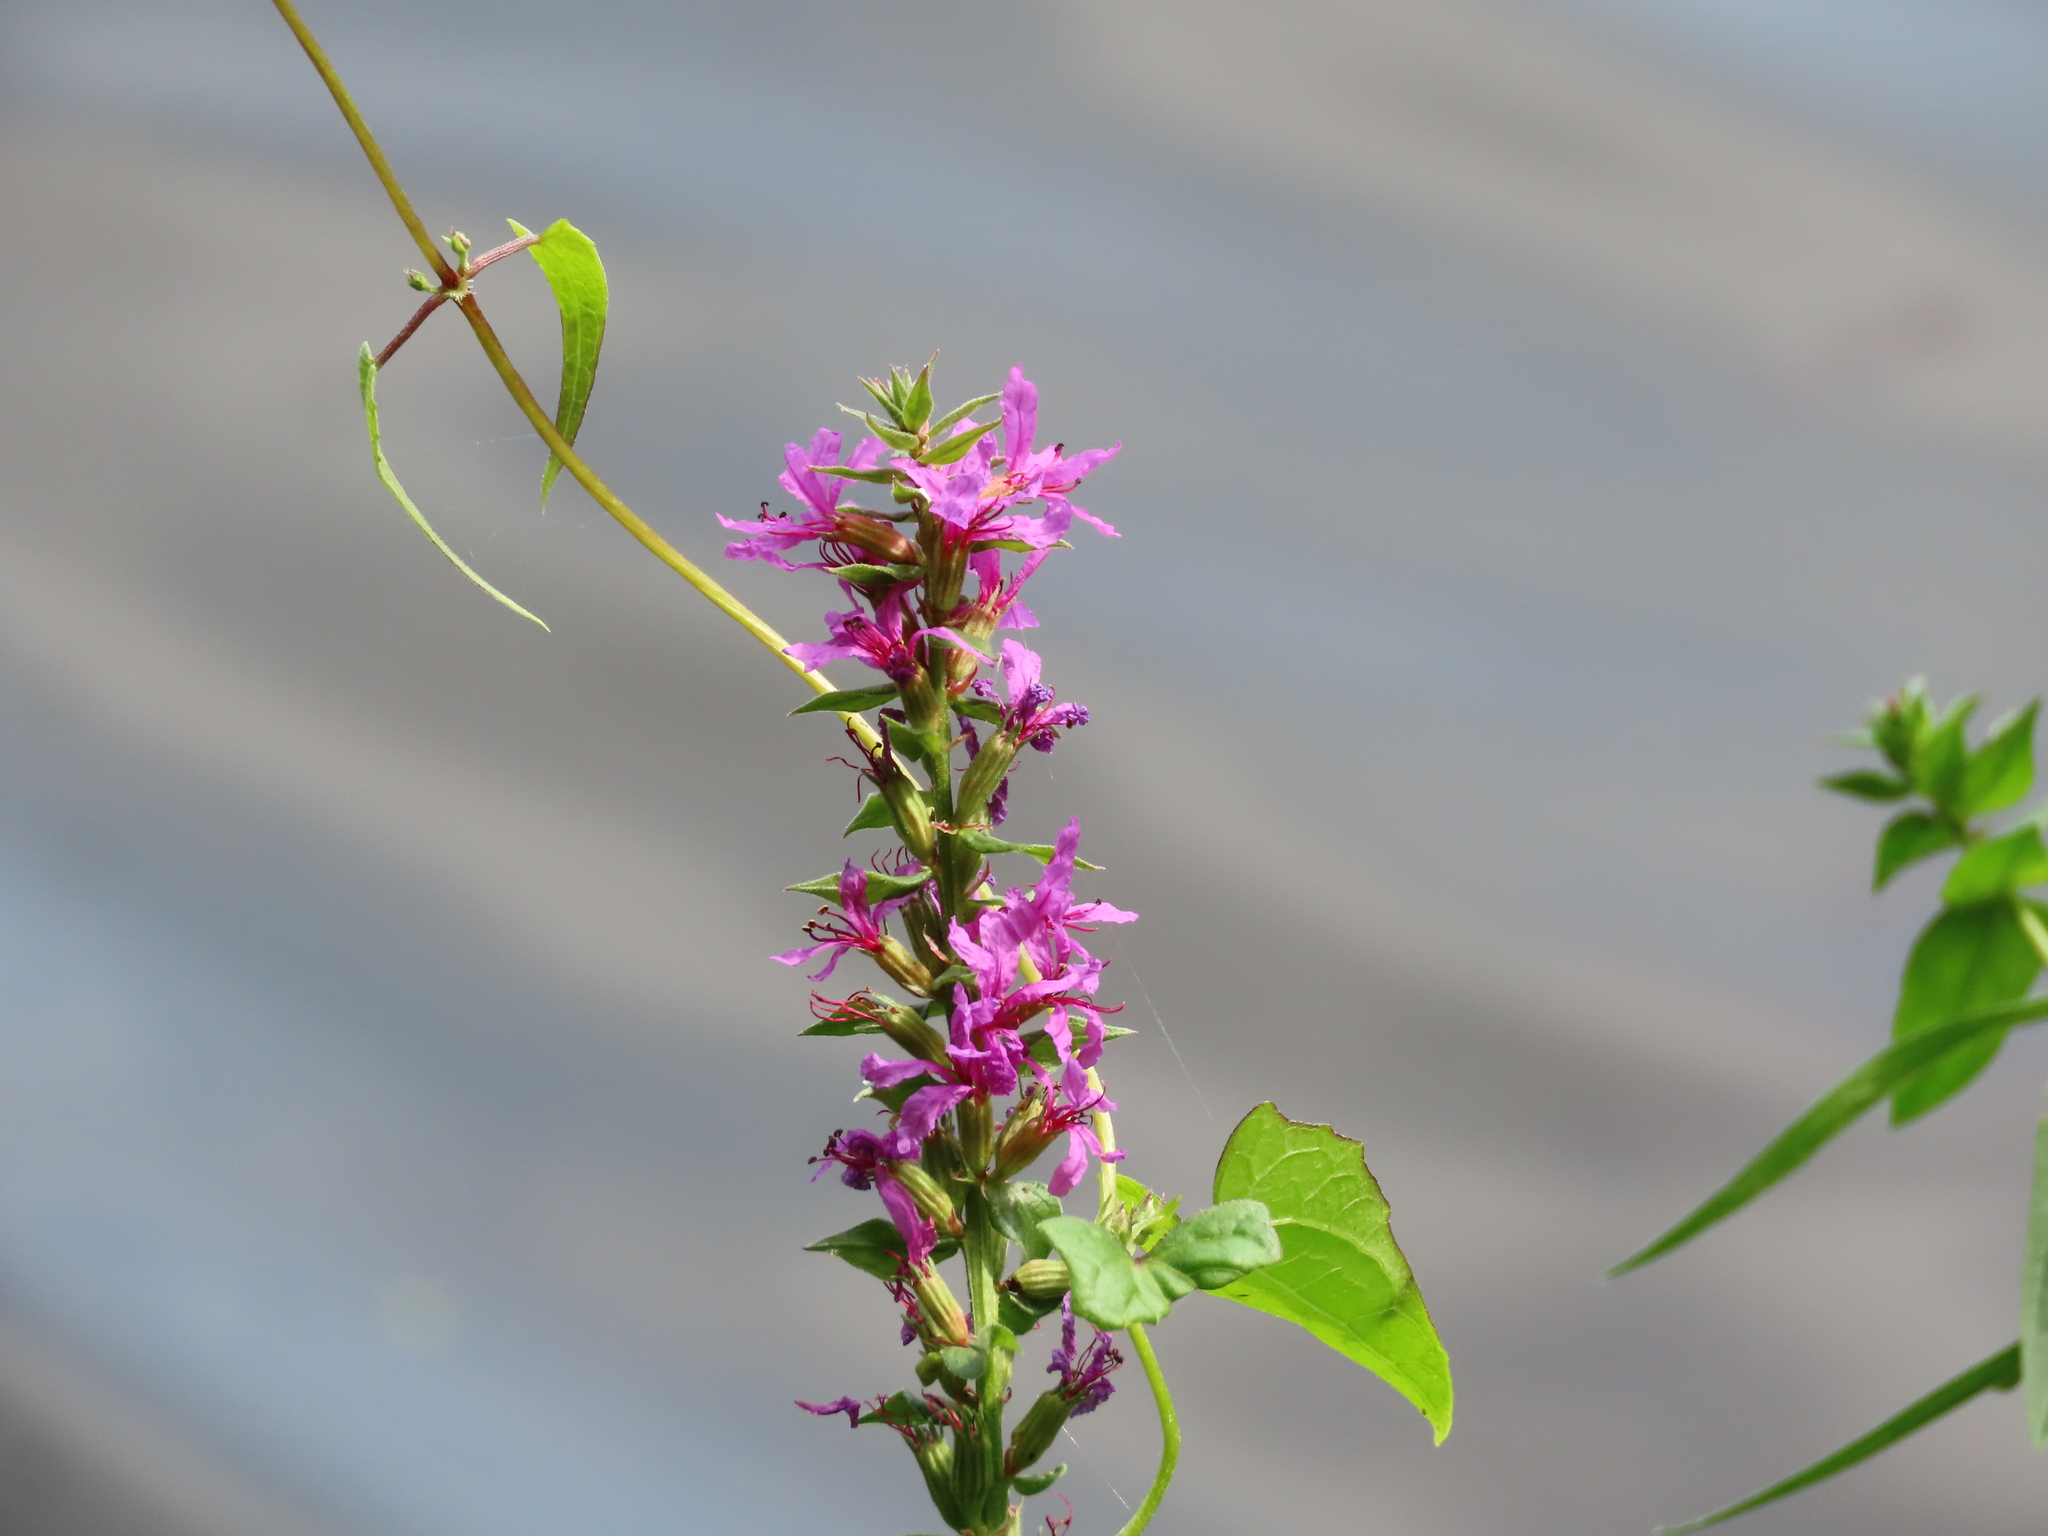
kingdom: Plantae
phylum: Tracheophyta
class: Magnoliopsida
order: Myrtales
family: Lythraceae
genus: Lythrum
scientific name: Lythrum salicaria
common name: Purple loosestrife
